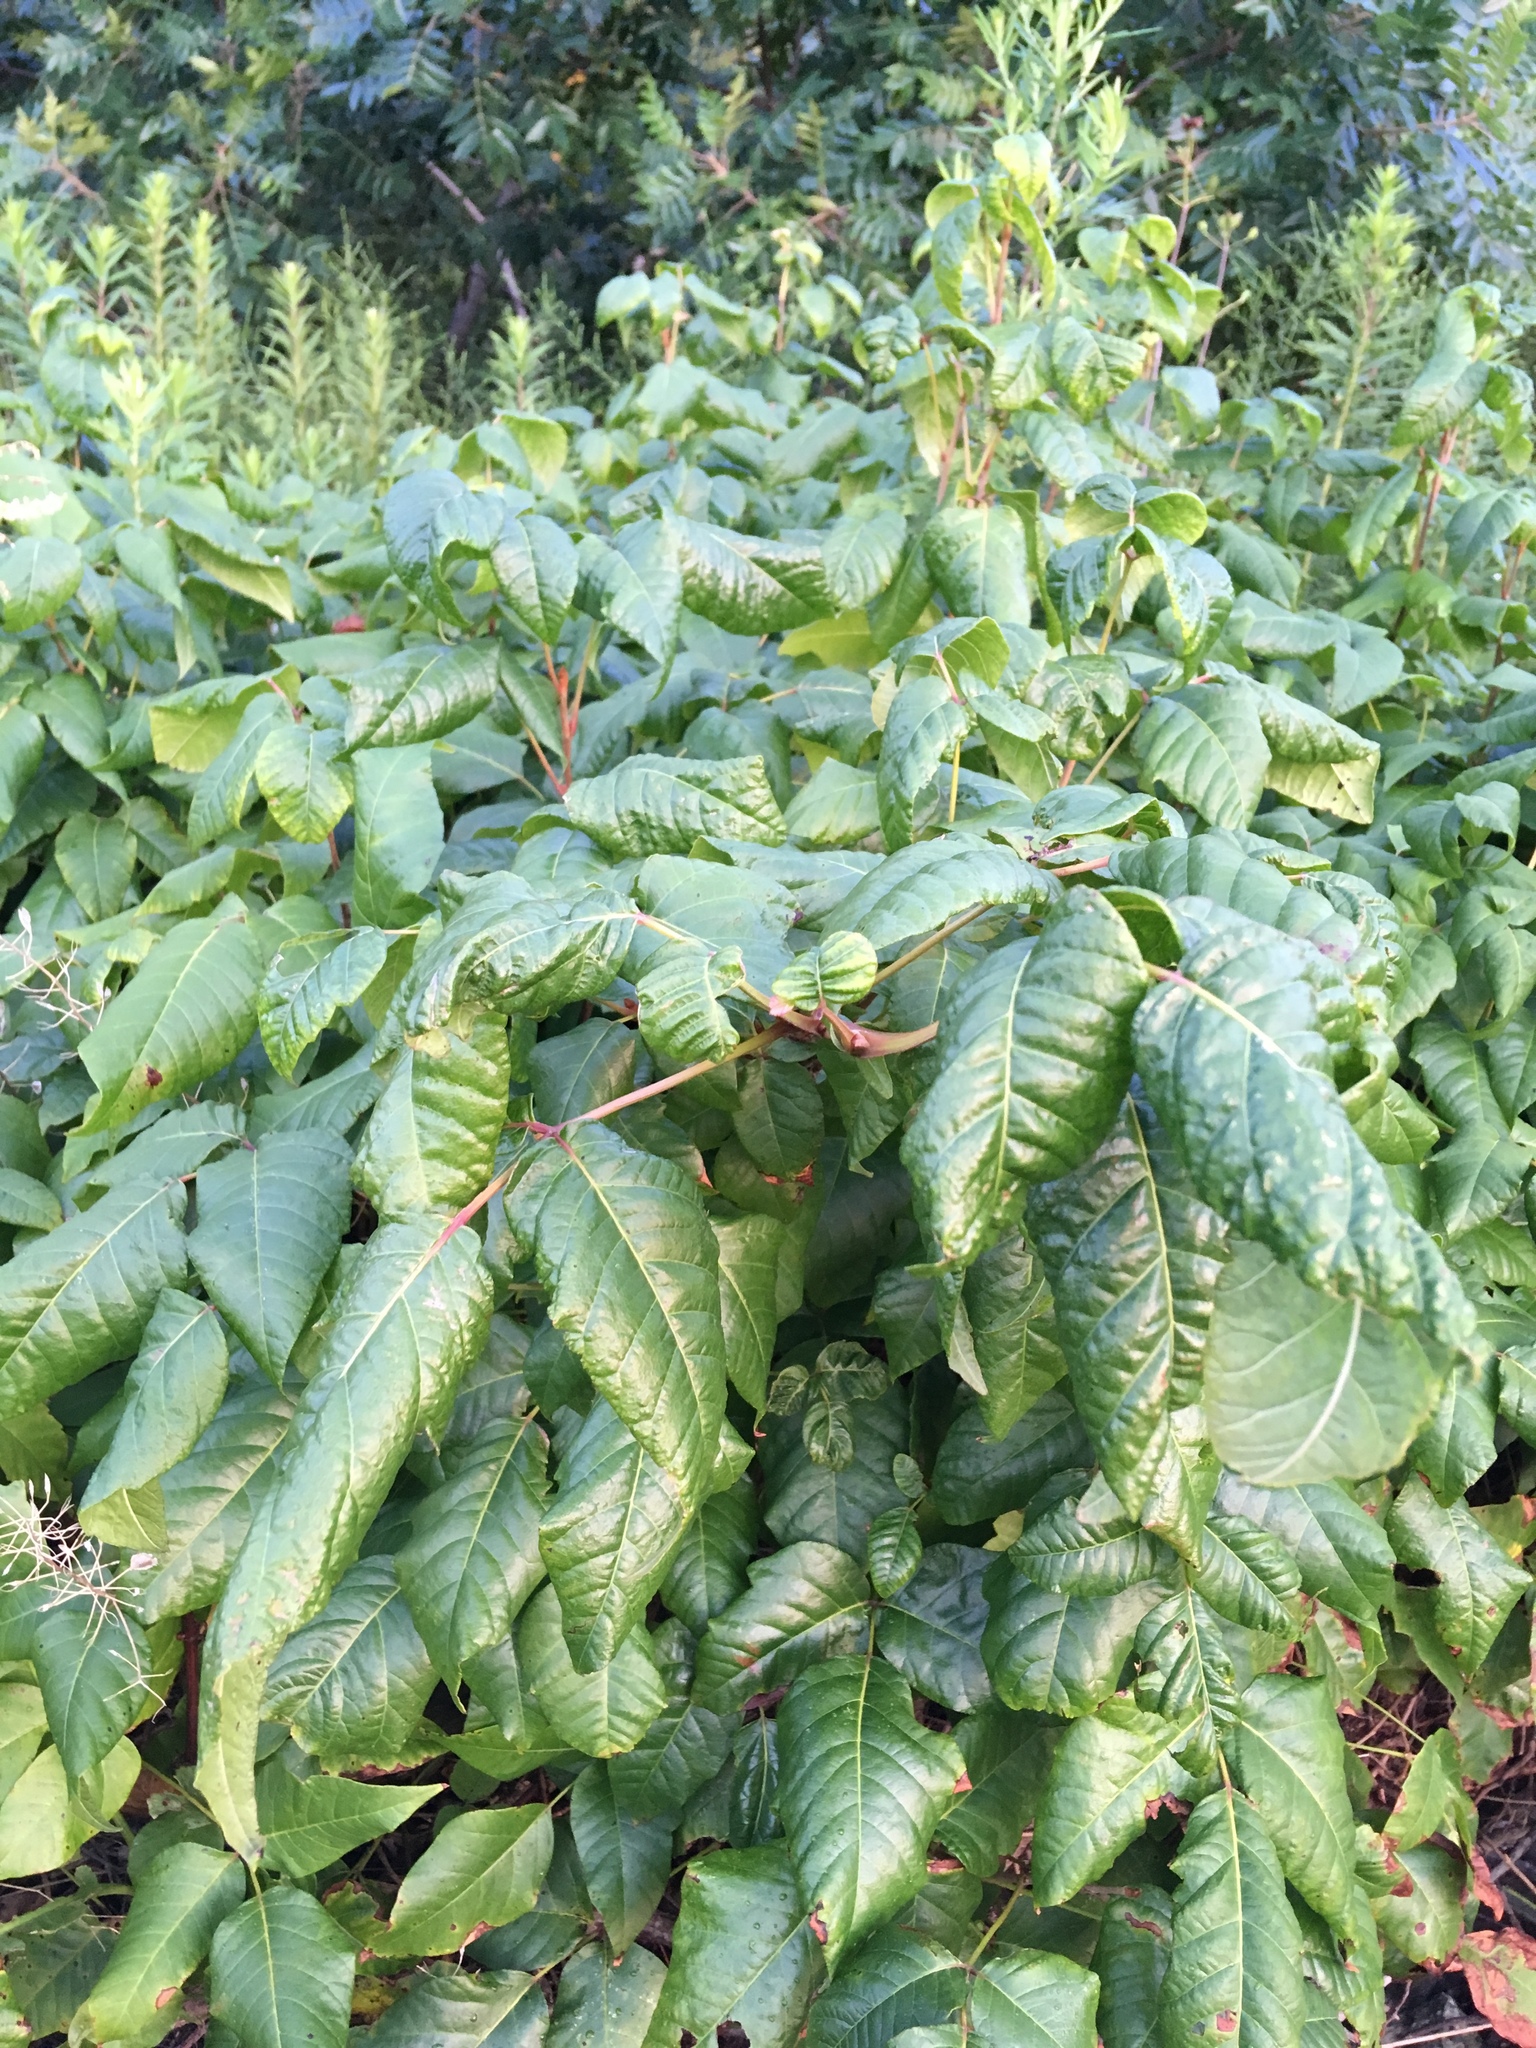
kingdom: Plantae
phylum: Tracheophyta
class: Magnoliopsida
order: Sapindales
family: Anacardiaceae
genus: Toxicodendron
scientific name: Toxicodendron radicans
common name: Poison ivy
